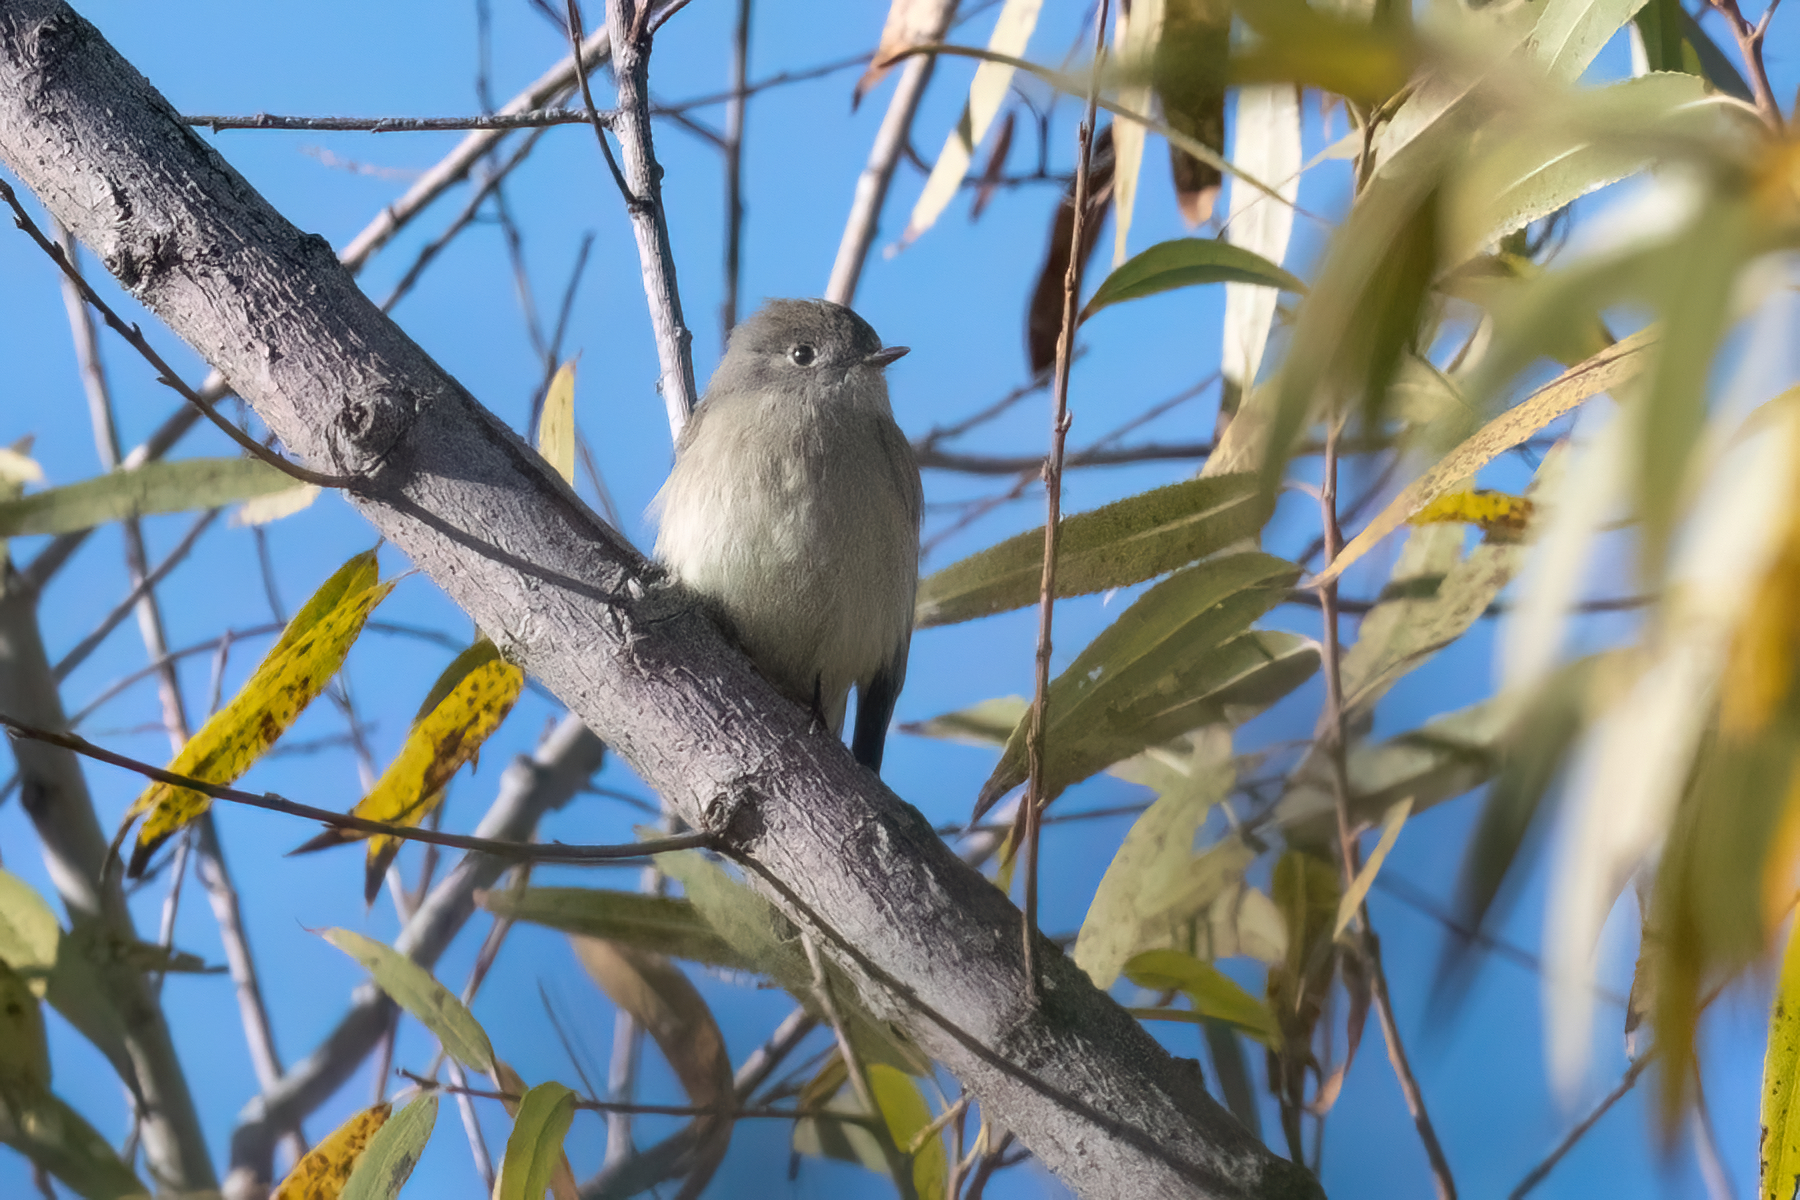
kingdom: Animalia
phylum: Chordata
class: Aves
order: Passeriformes
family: Tyrannidae
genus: Empidonax
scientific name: Empidonax hammondii
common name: Hammond's flycatcher
